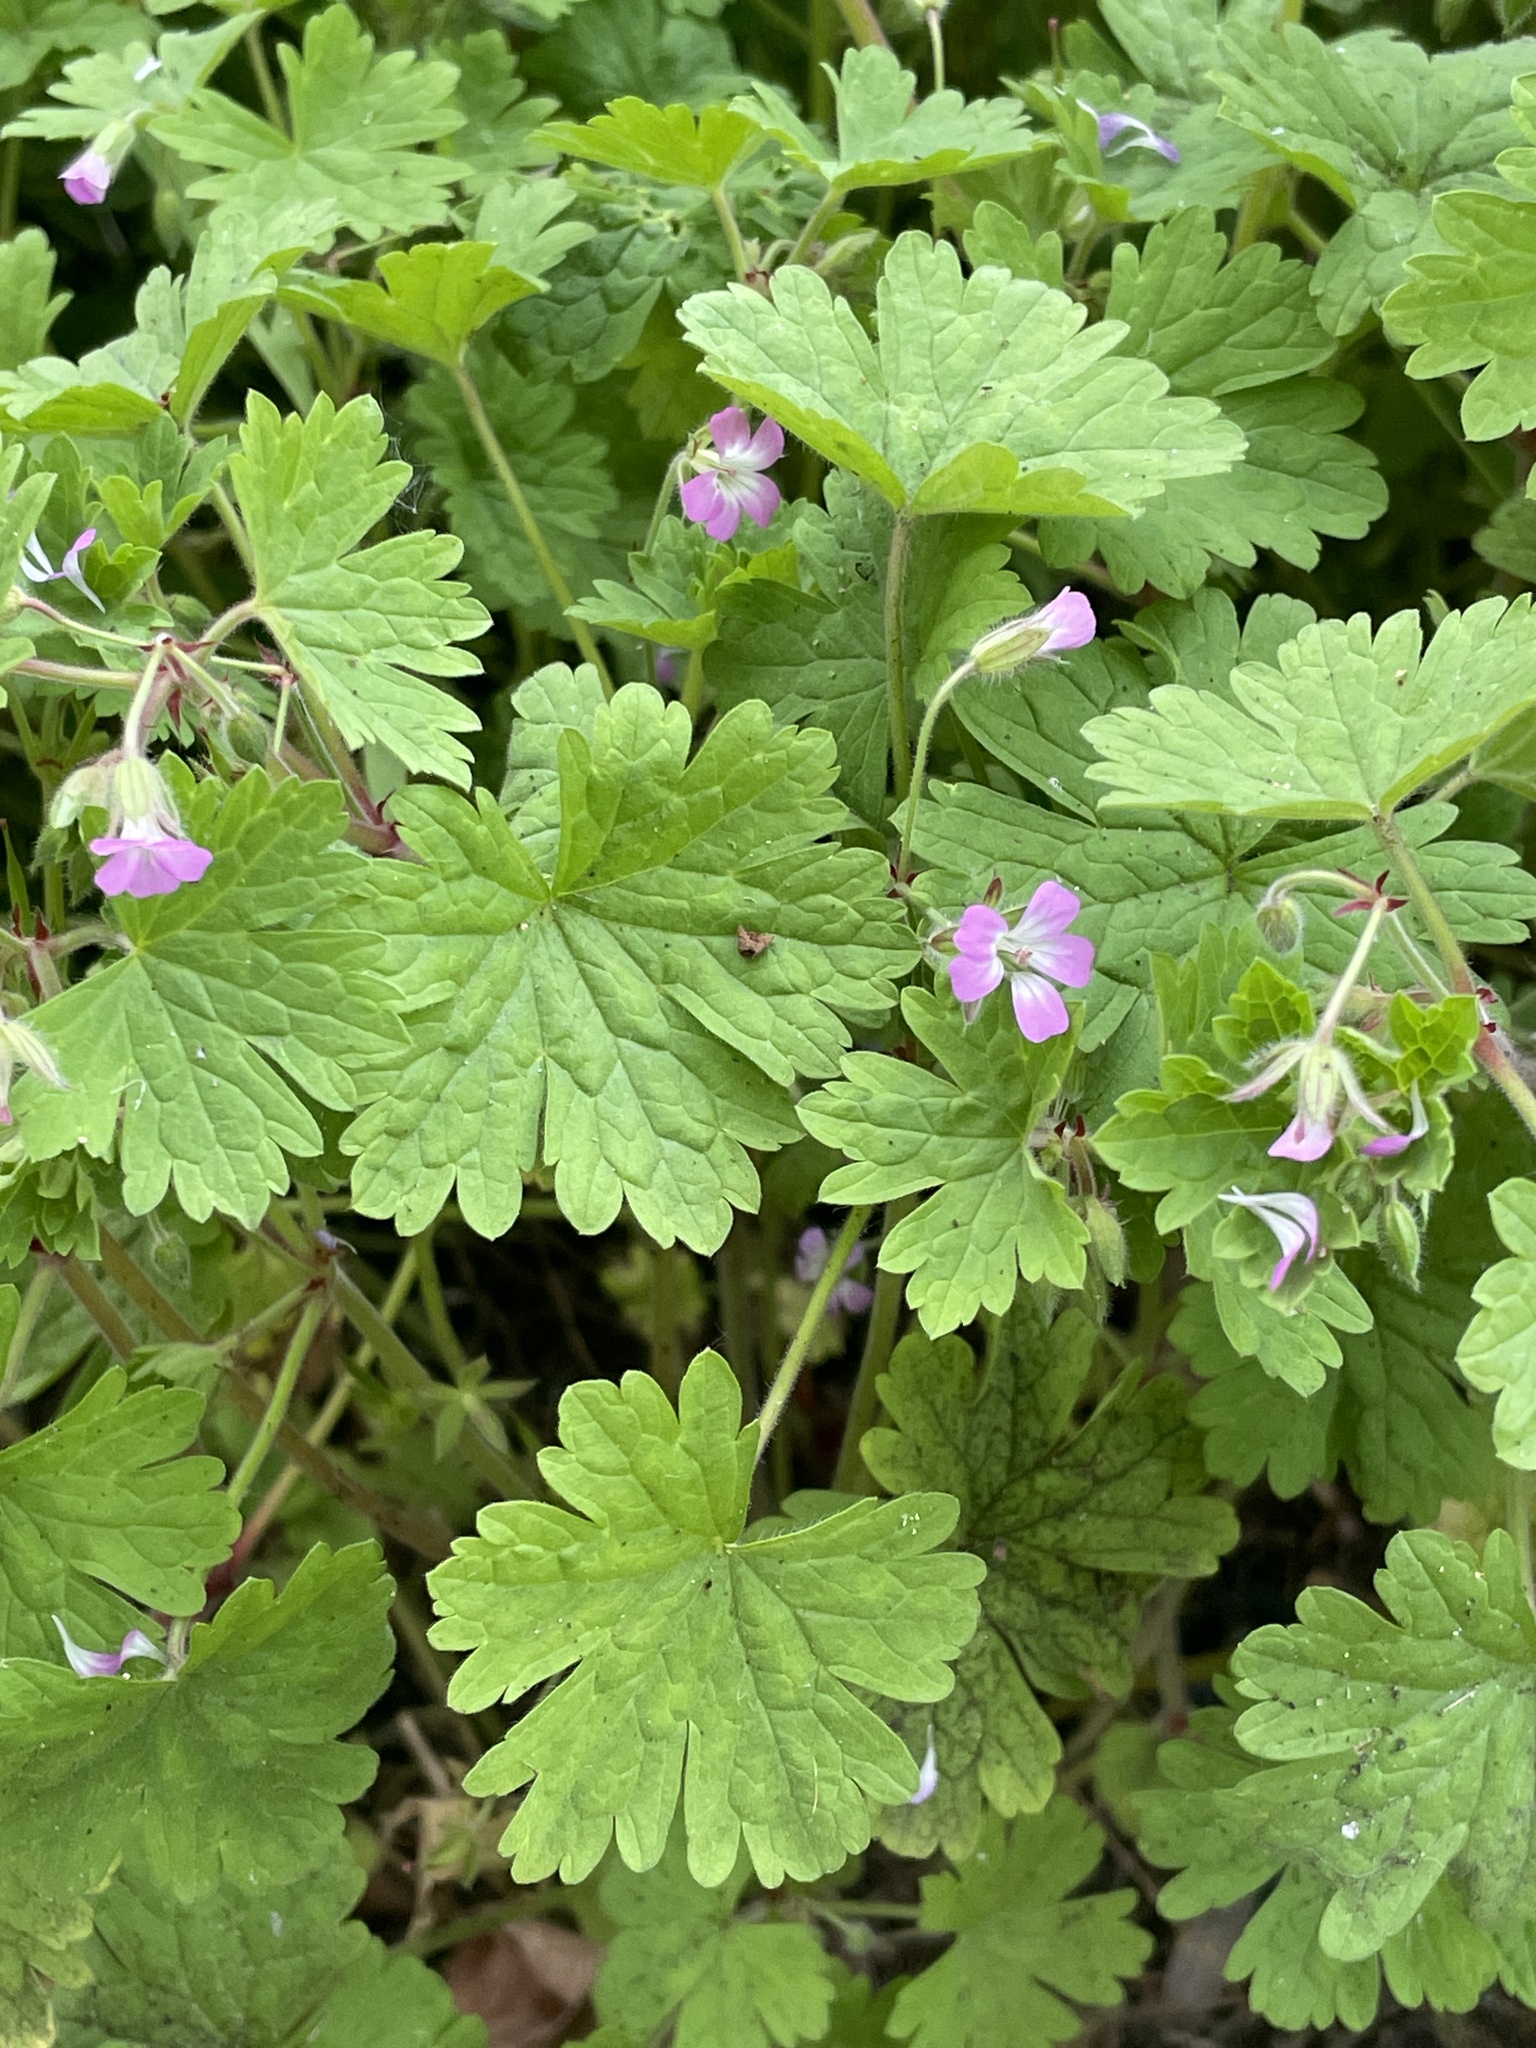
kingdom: Plantae
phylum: Tracheophyta
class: Magnoliopsida
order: Geraniales
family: Geraniaceae
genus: Geranium
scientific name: Geranium rotundifolium
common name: Round-leaved crane's-bill
